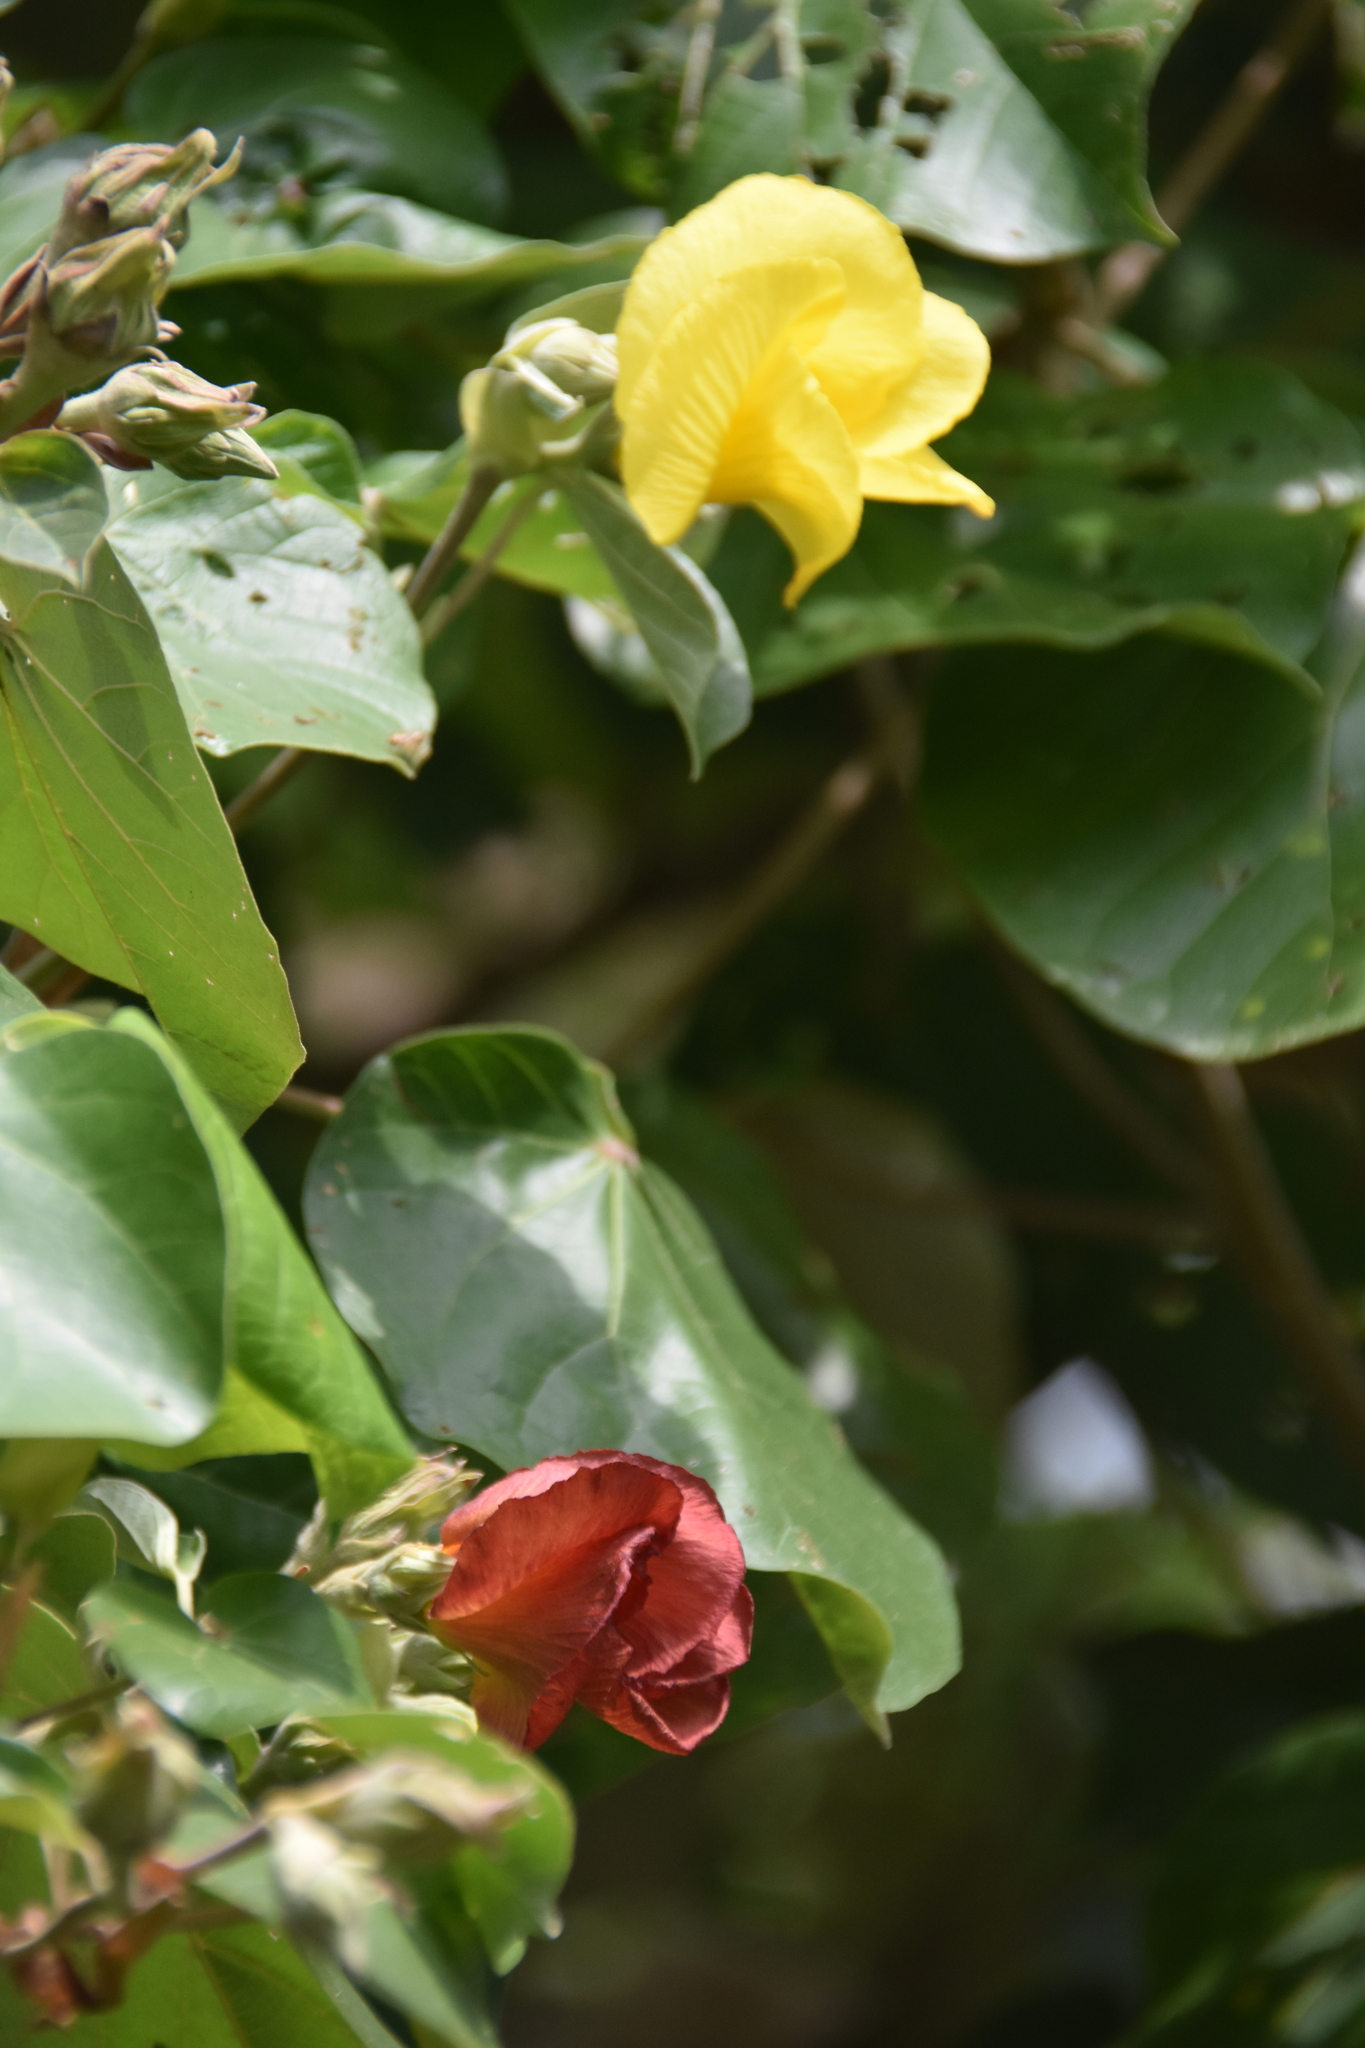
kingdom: Plantae
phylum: Tracheophyta
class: Magnoliopsida
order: Malvales
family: Malvaceae
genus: Talipariti
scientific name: Talipariti tiliaceum
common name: Sea hibiscus
